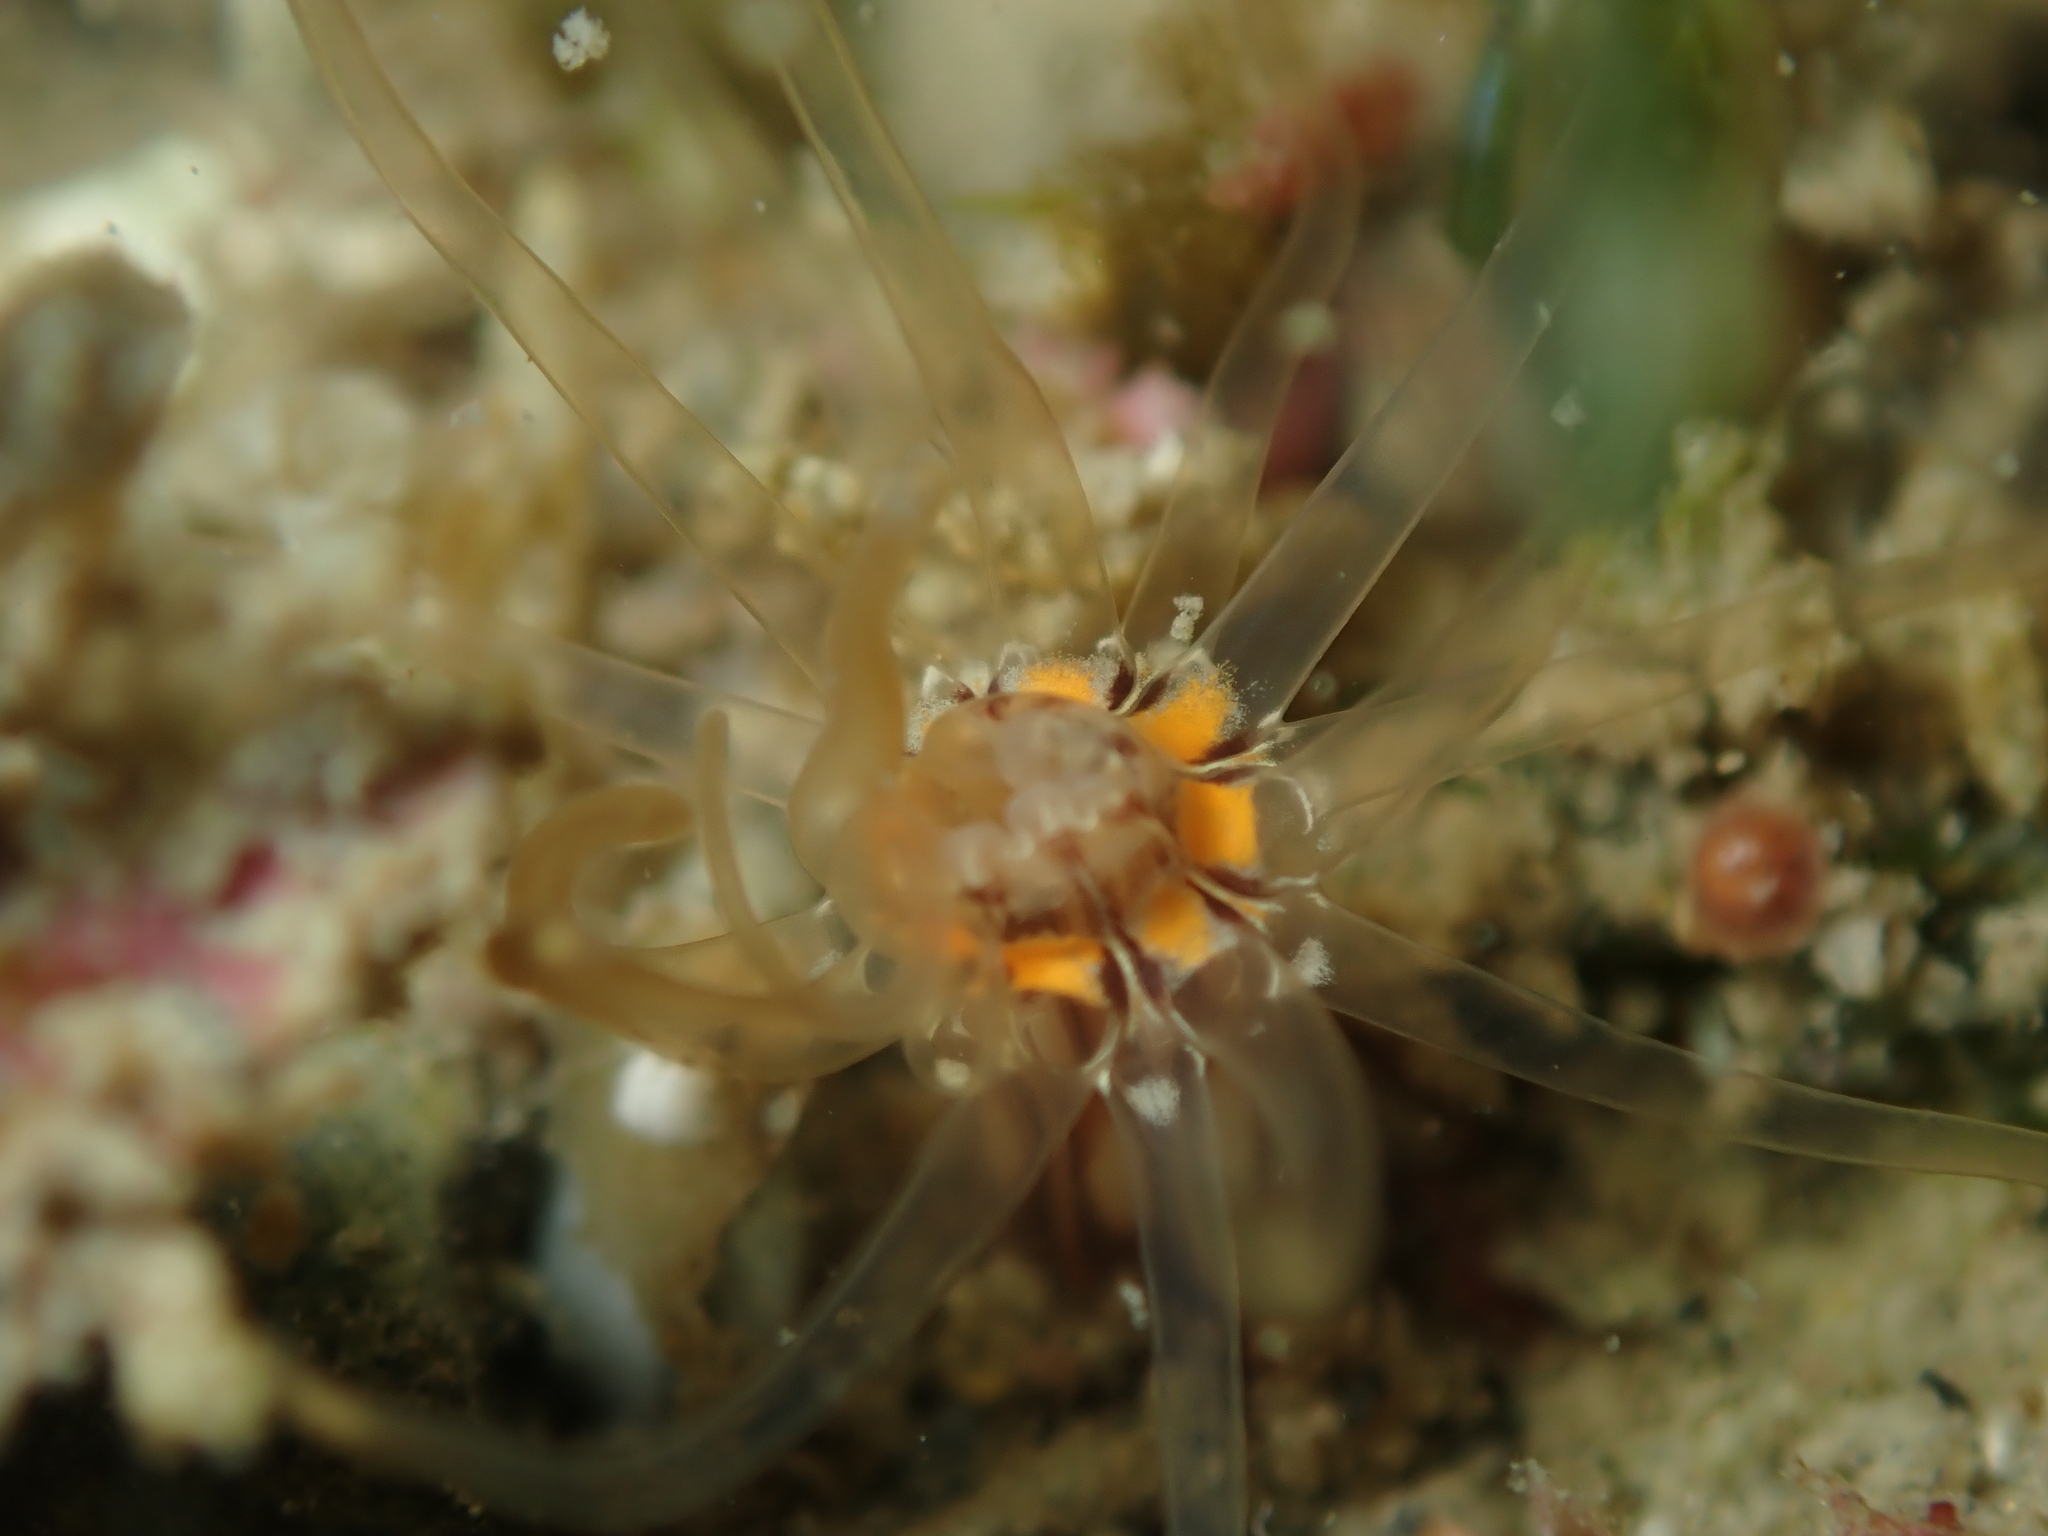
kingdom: Animalia
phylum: Cnidaria
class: Anthozoa
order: Actiniaria
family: Edwardsiidae
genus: Edwardsia
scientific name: Edwardsia neozelanica
